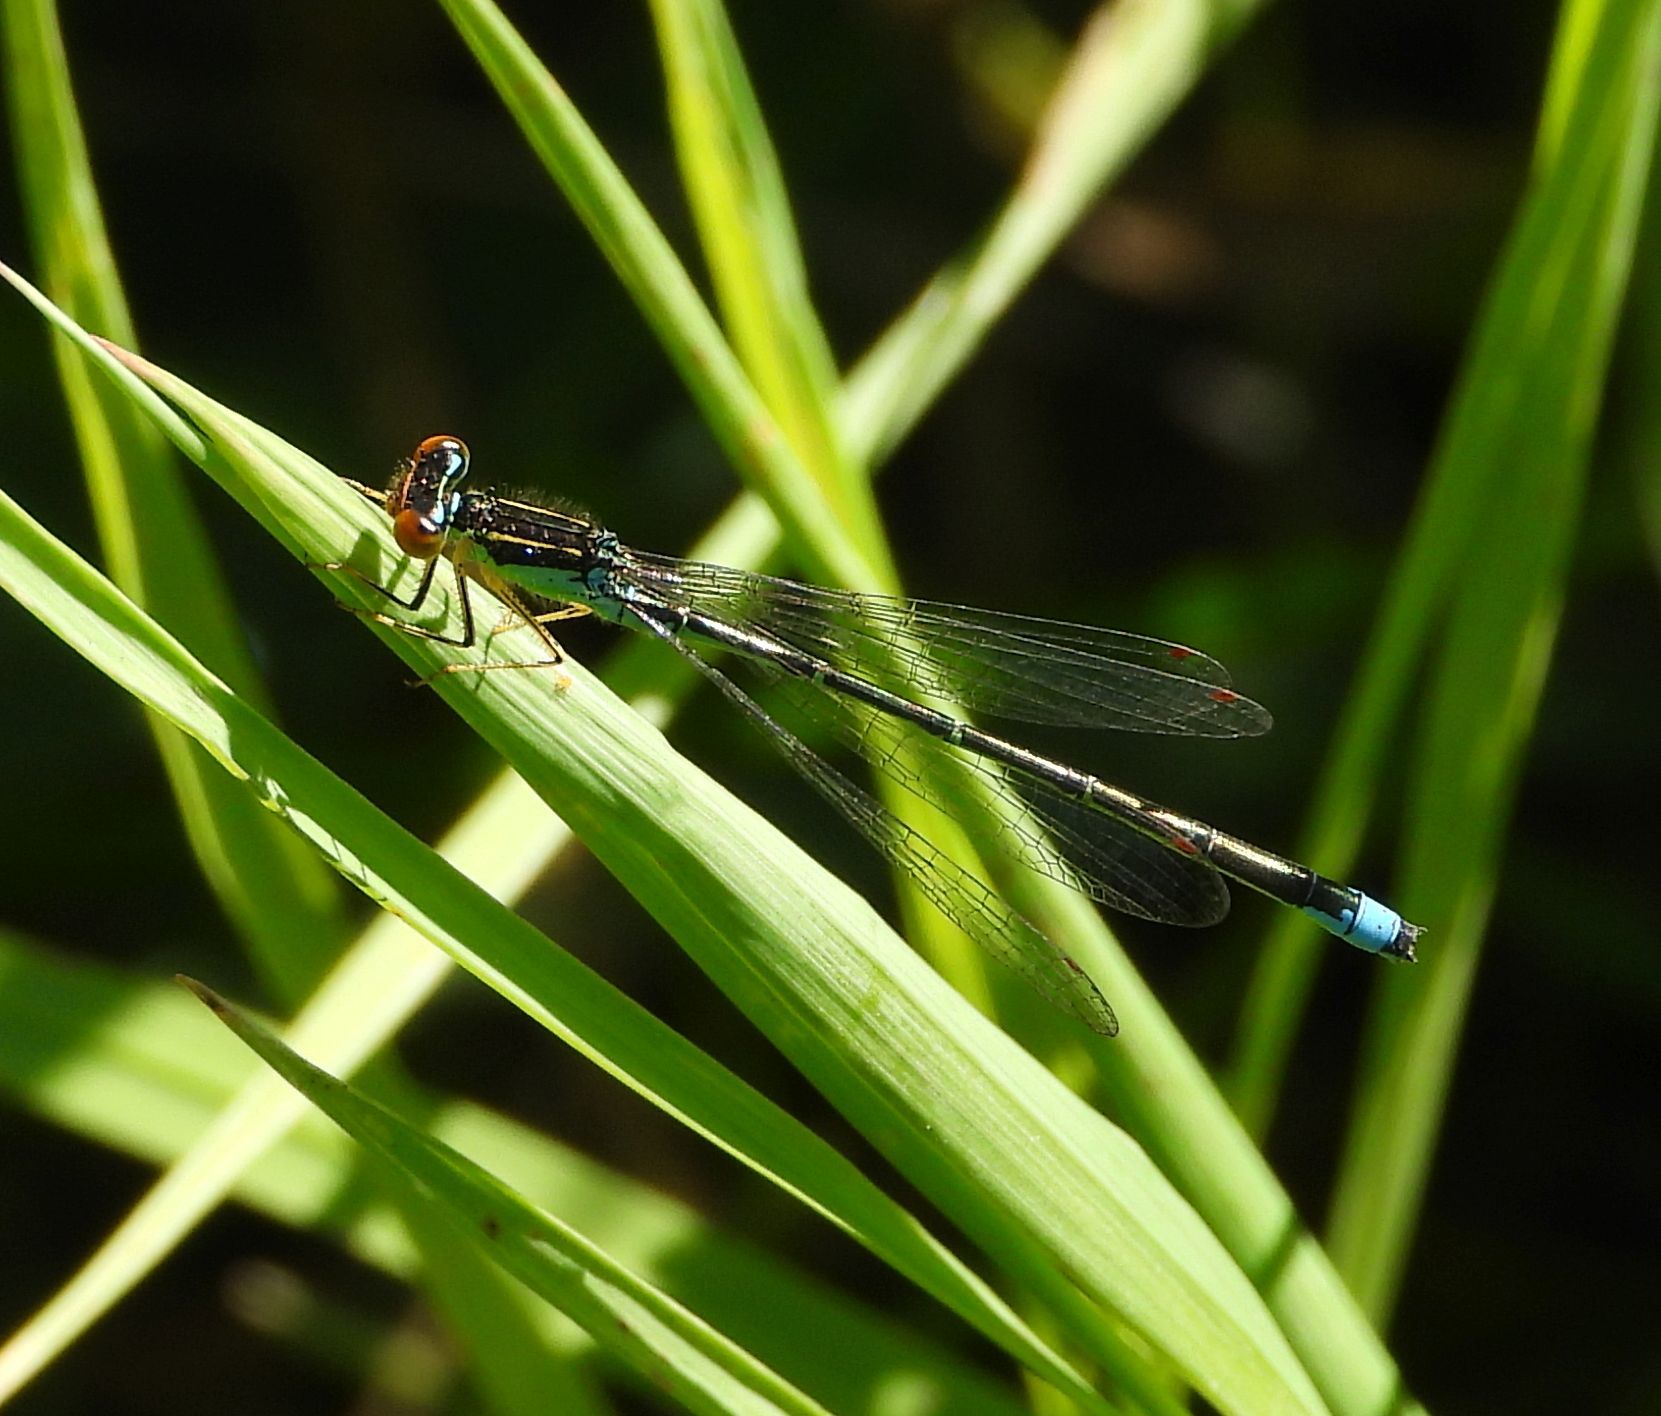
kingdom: Animalia
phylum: Arthropoda
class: Insecta
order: Odonata
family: Coenagrionidae
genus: Enallagma
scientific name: Enallagma antennatum
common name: Rainbow bluet
